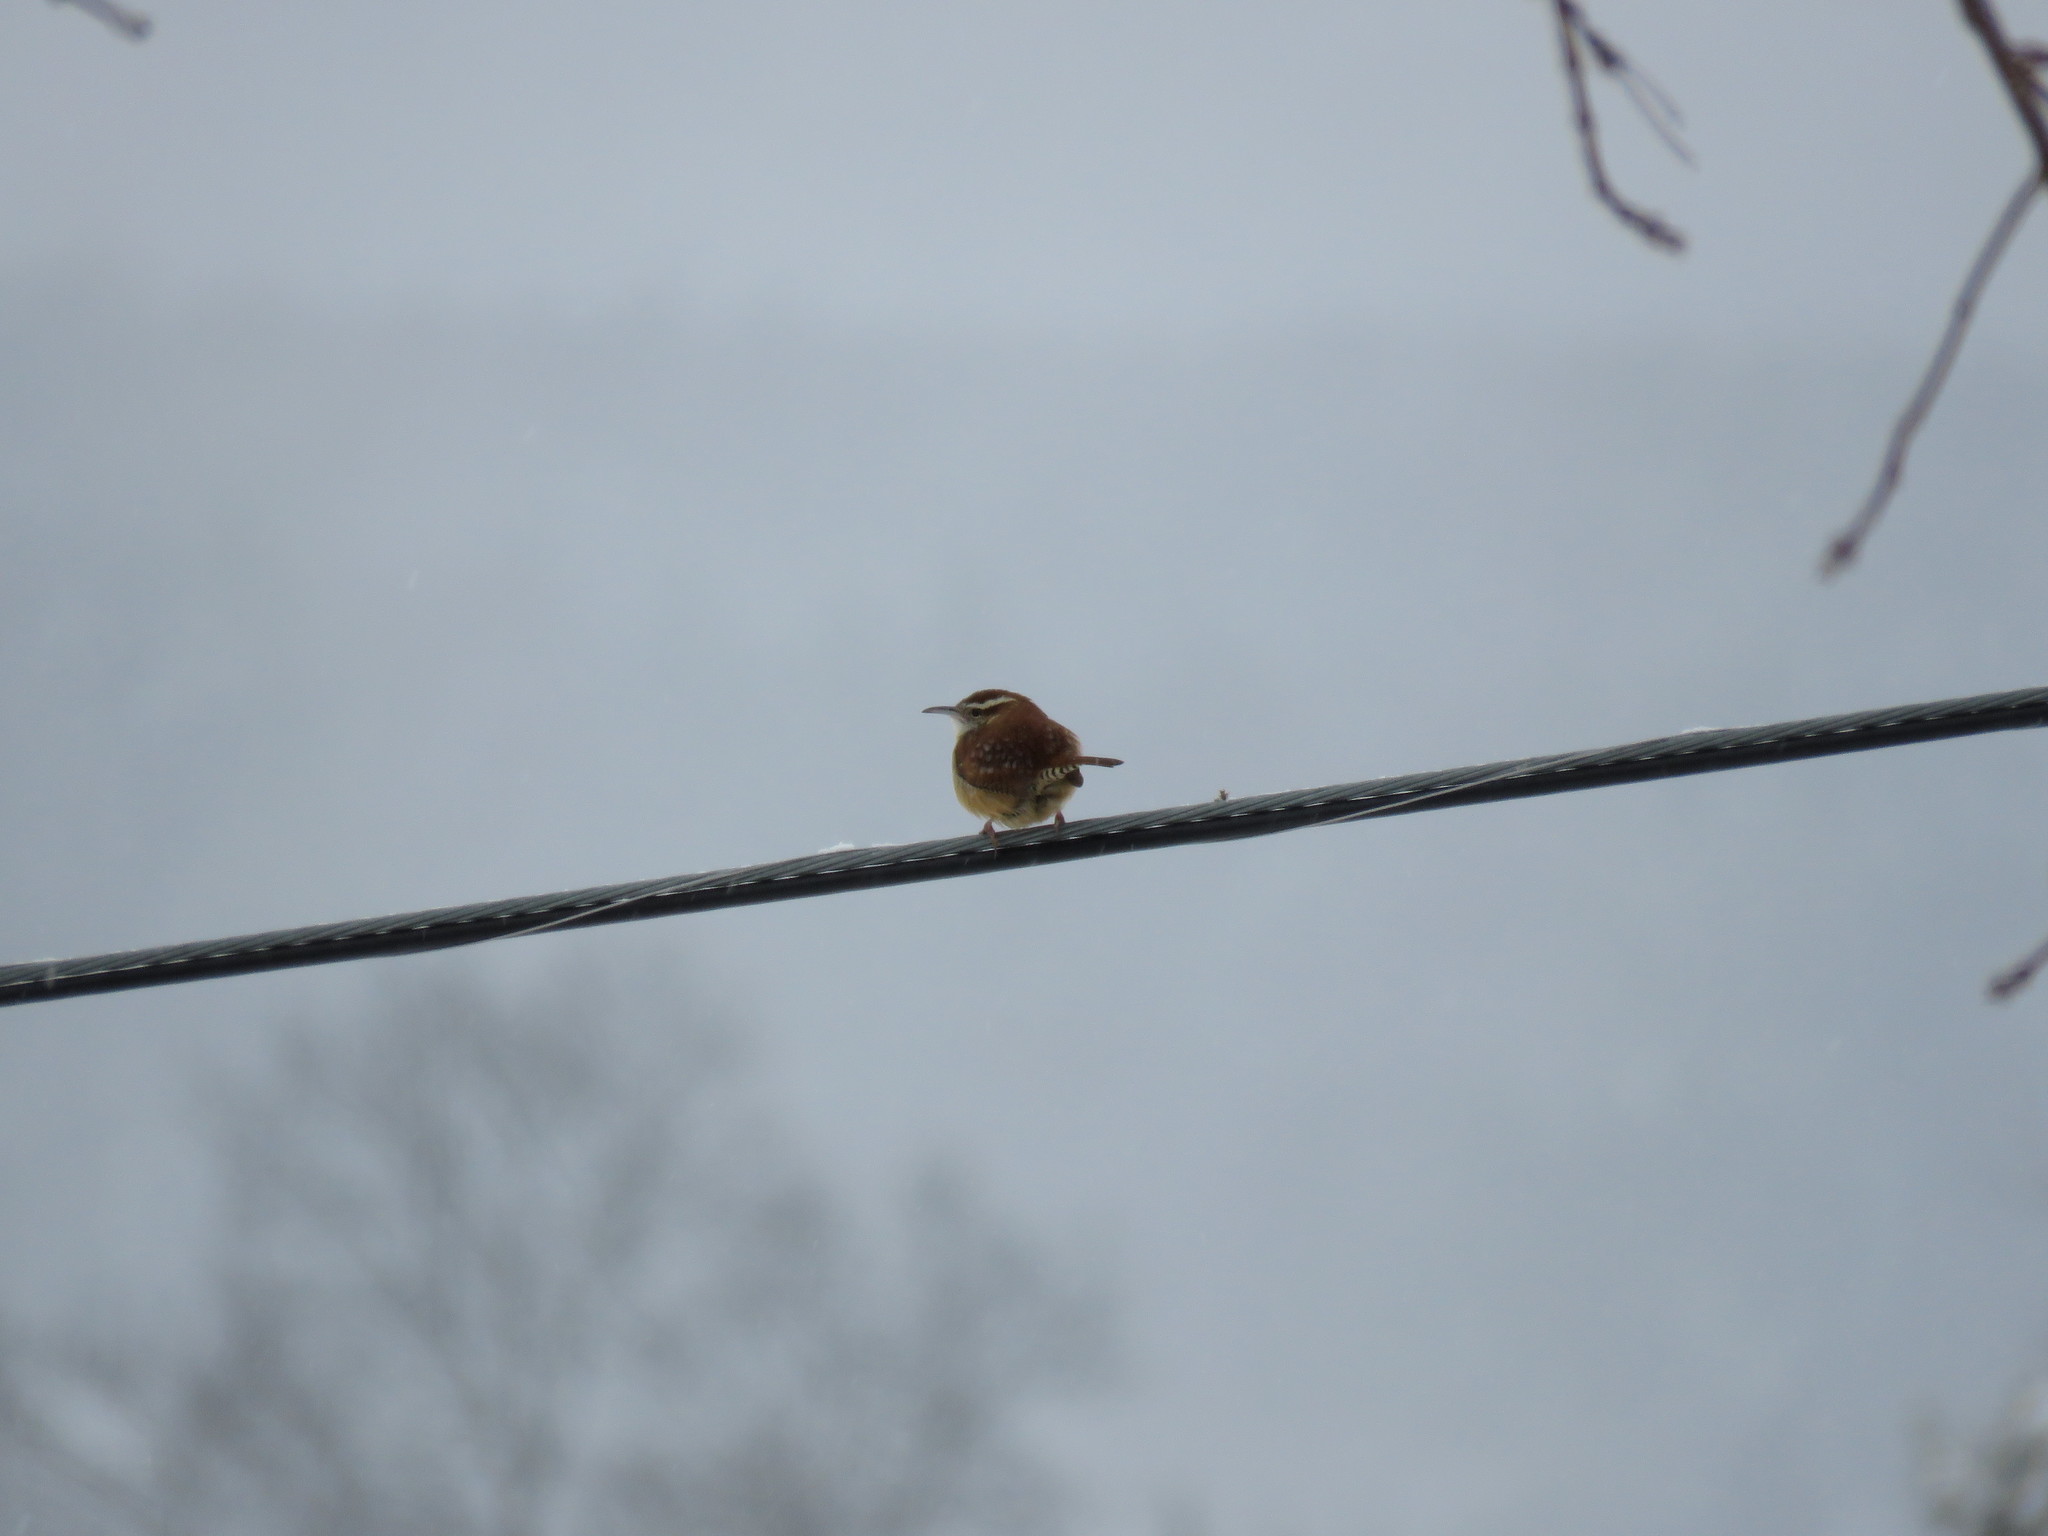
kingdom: Animalia
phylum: Chordata
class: Aves
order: Passeriformes
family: Troglodytidae
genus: Thryothorus
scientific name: Thryothorus ludovicianus
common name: Carolina wren
